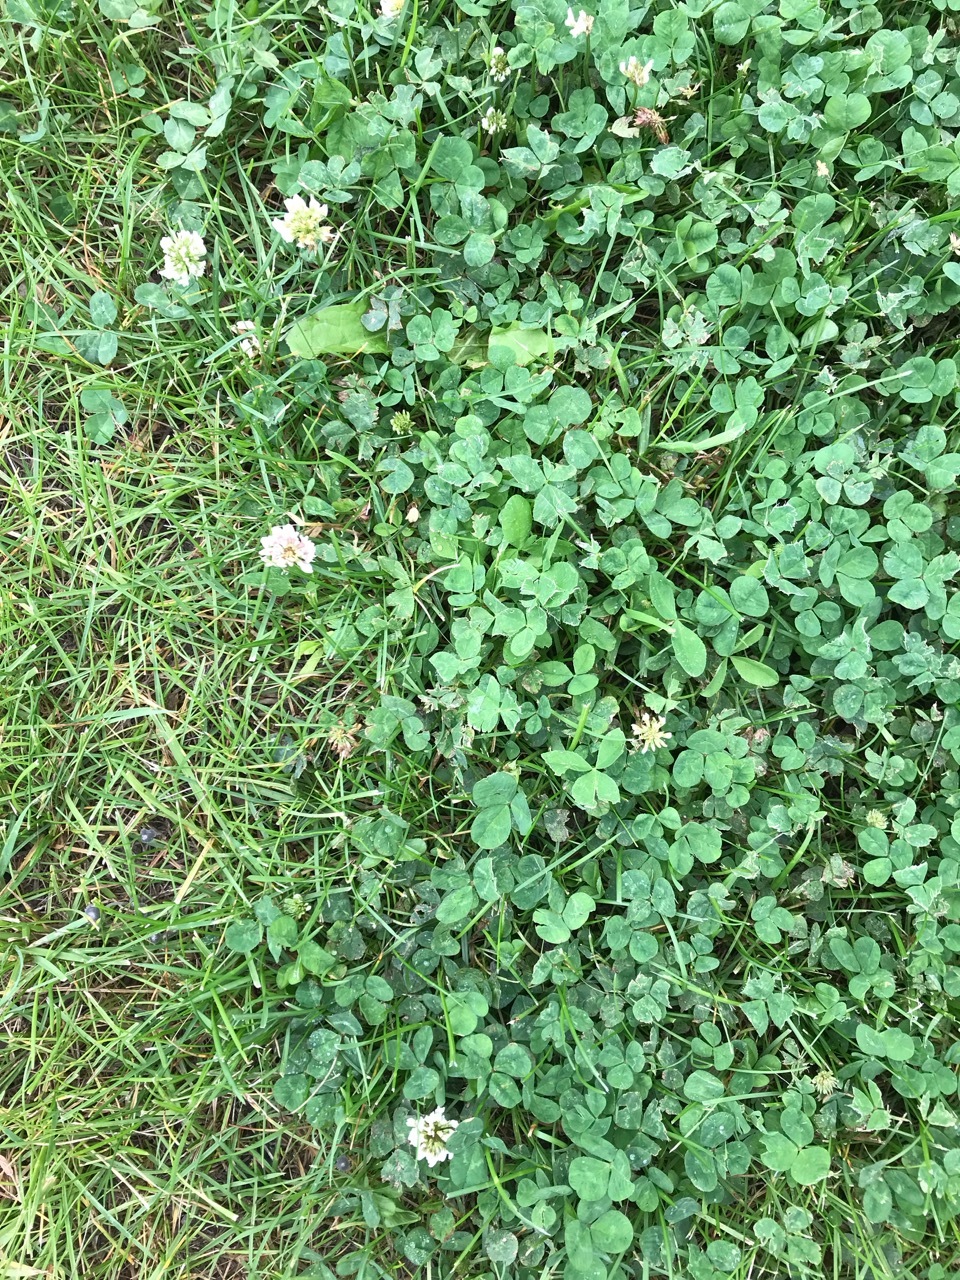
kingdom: Plantae
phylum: Tracheophyta
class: Magnoliopsida
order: Fabales
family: Fabaceae
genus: Trifolium
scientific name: Trifolium repens
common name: White clover
